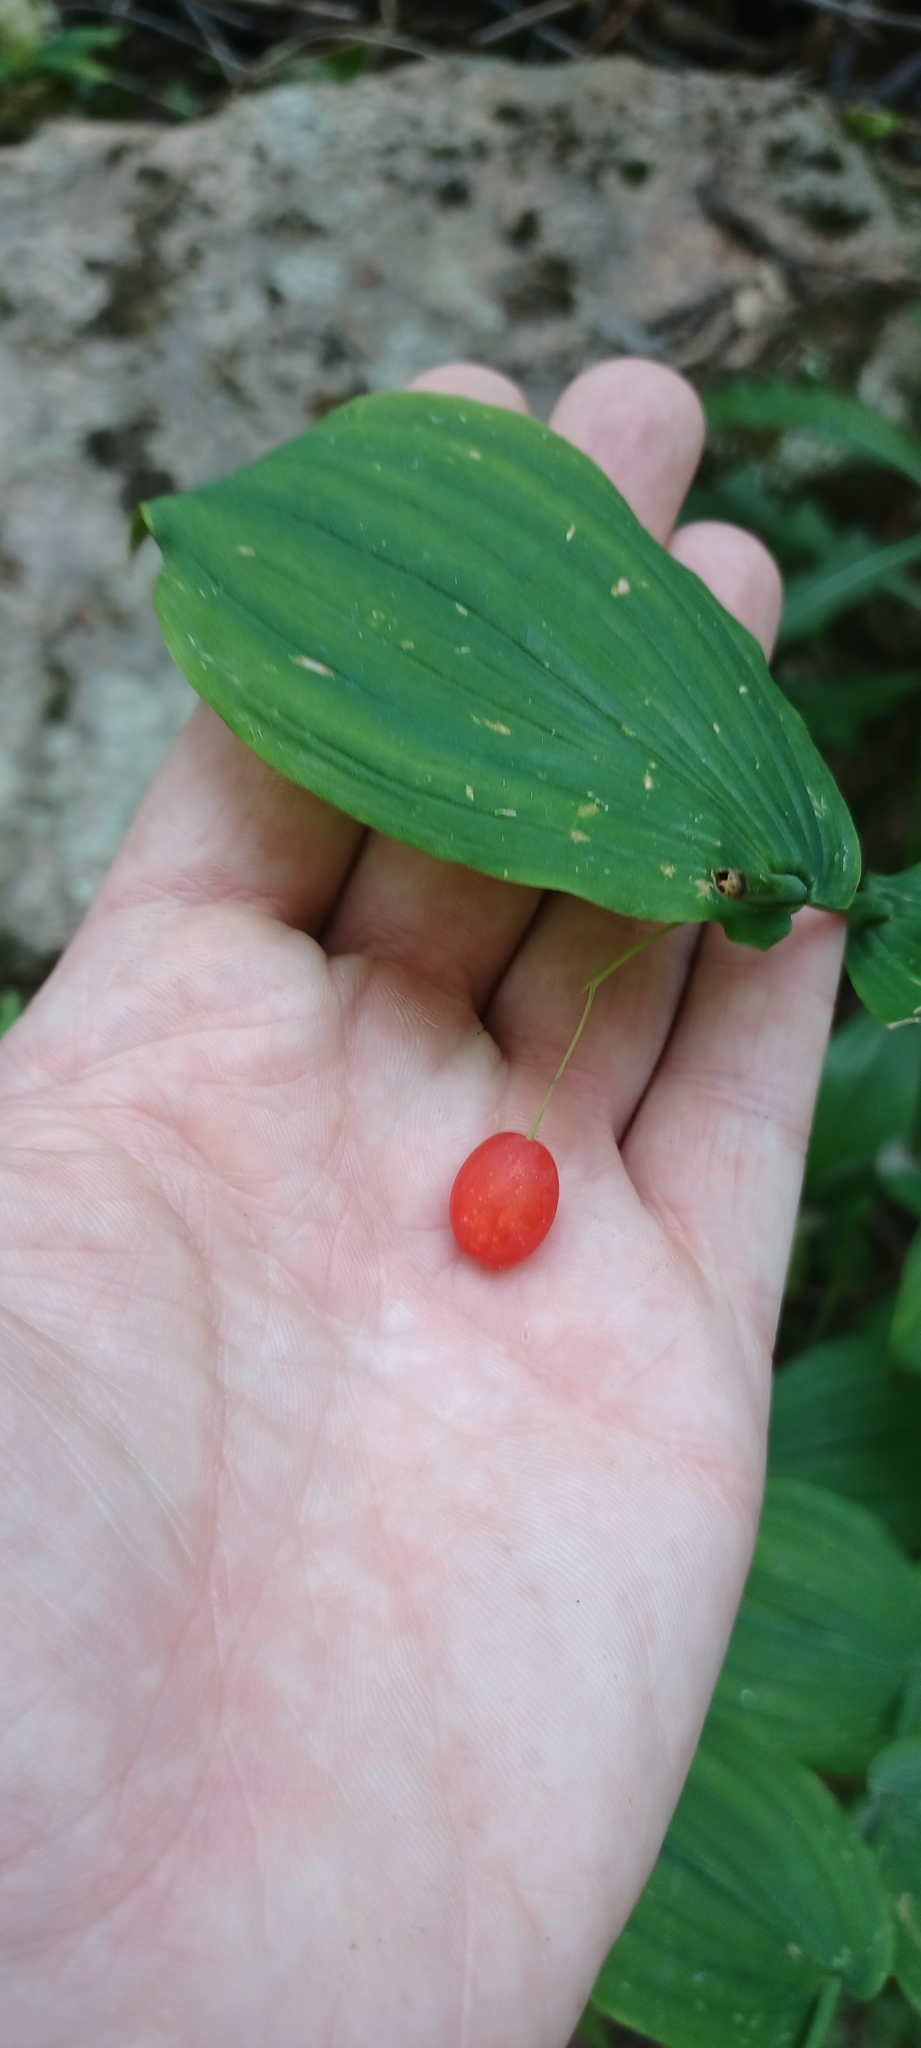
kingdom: Plantae
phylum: Tracheophyta
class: Liliopsida
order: Liliales
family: Liliaceae
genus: Streptopus
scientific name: Streptopus amplexifolius
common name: Clasp twisted stalk
